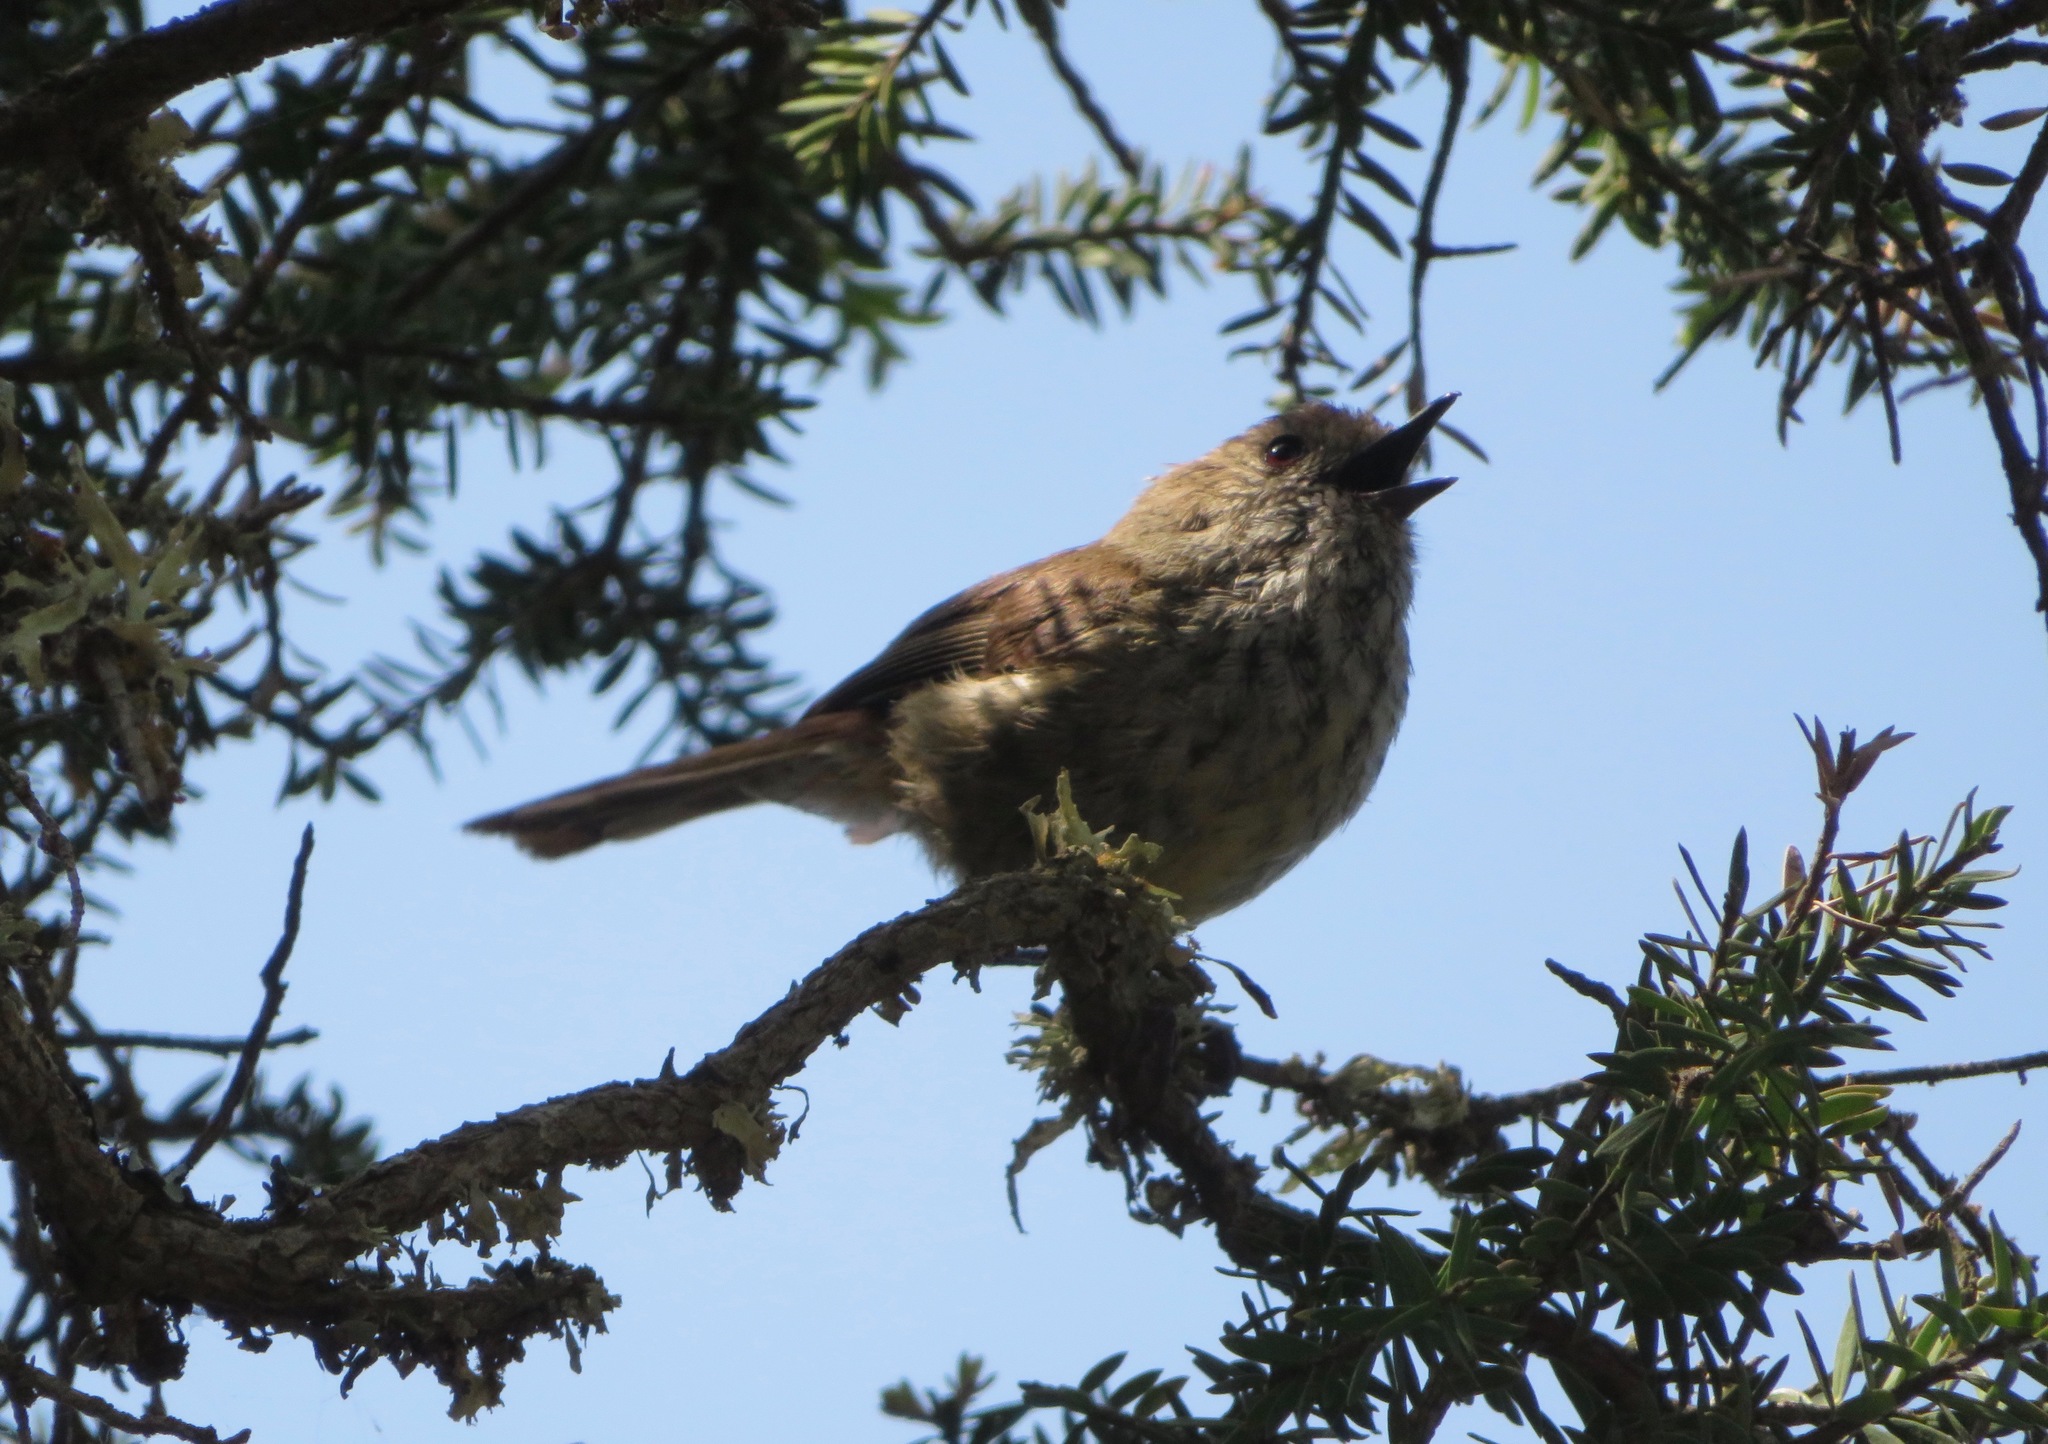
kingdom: Animalia
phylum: Chordata
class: Aves
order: Passeriformes
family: Acanthizidae
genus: Acanthiza
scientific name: Acanthiza pusilla
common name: Brown thornbill
